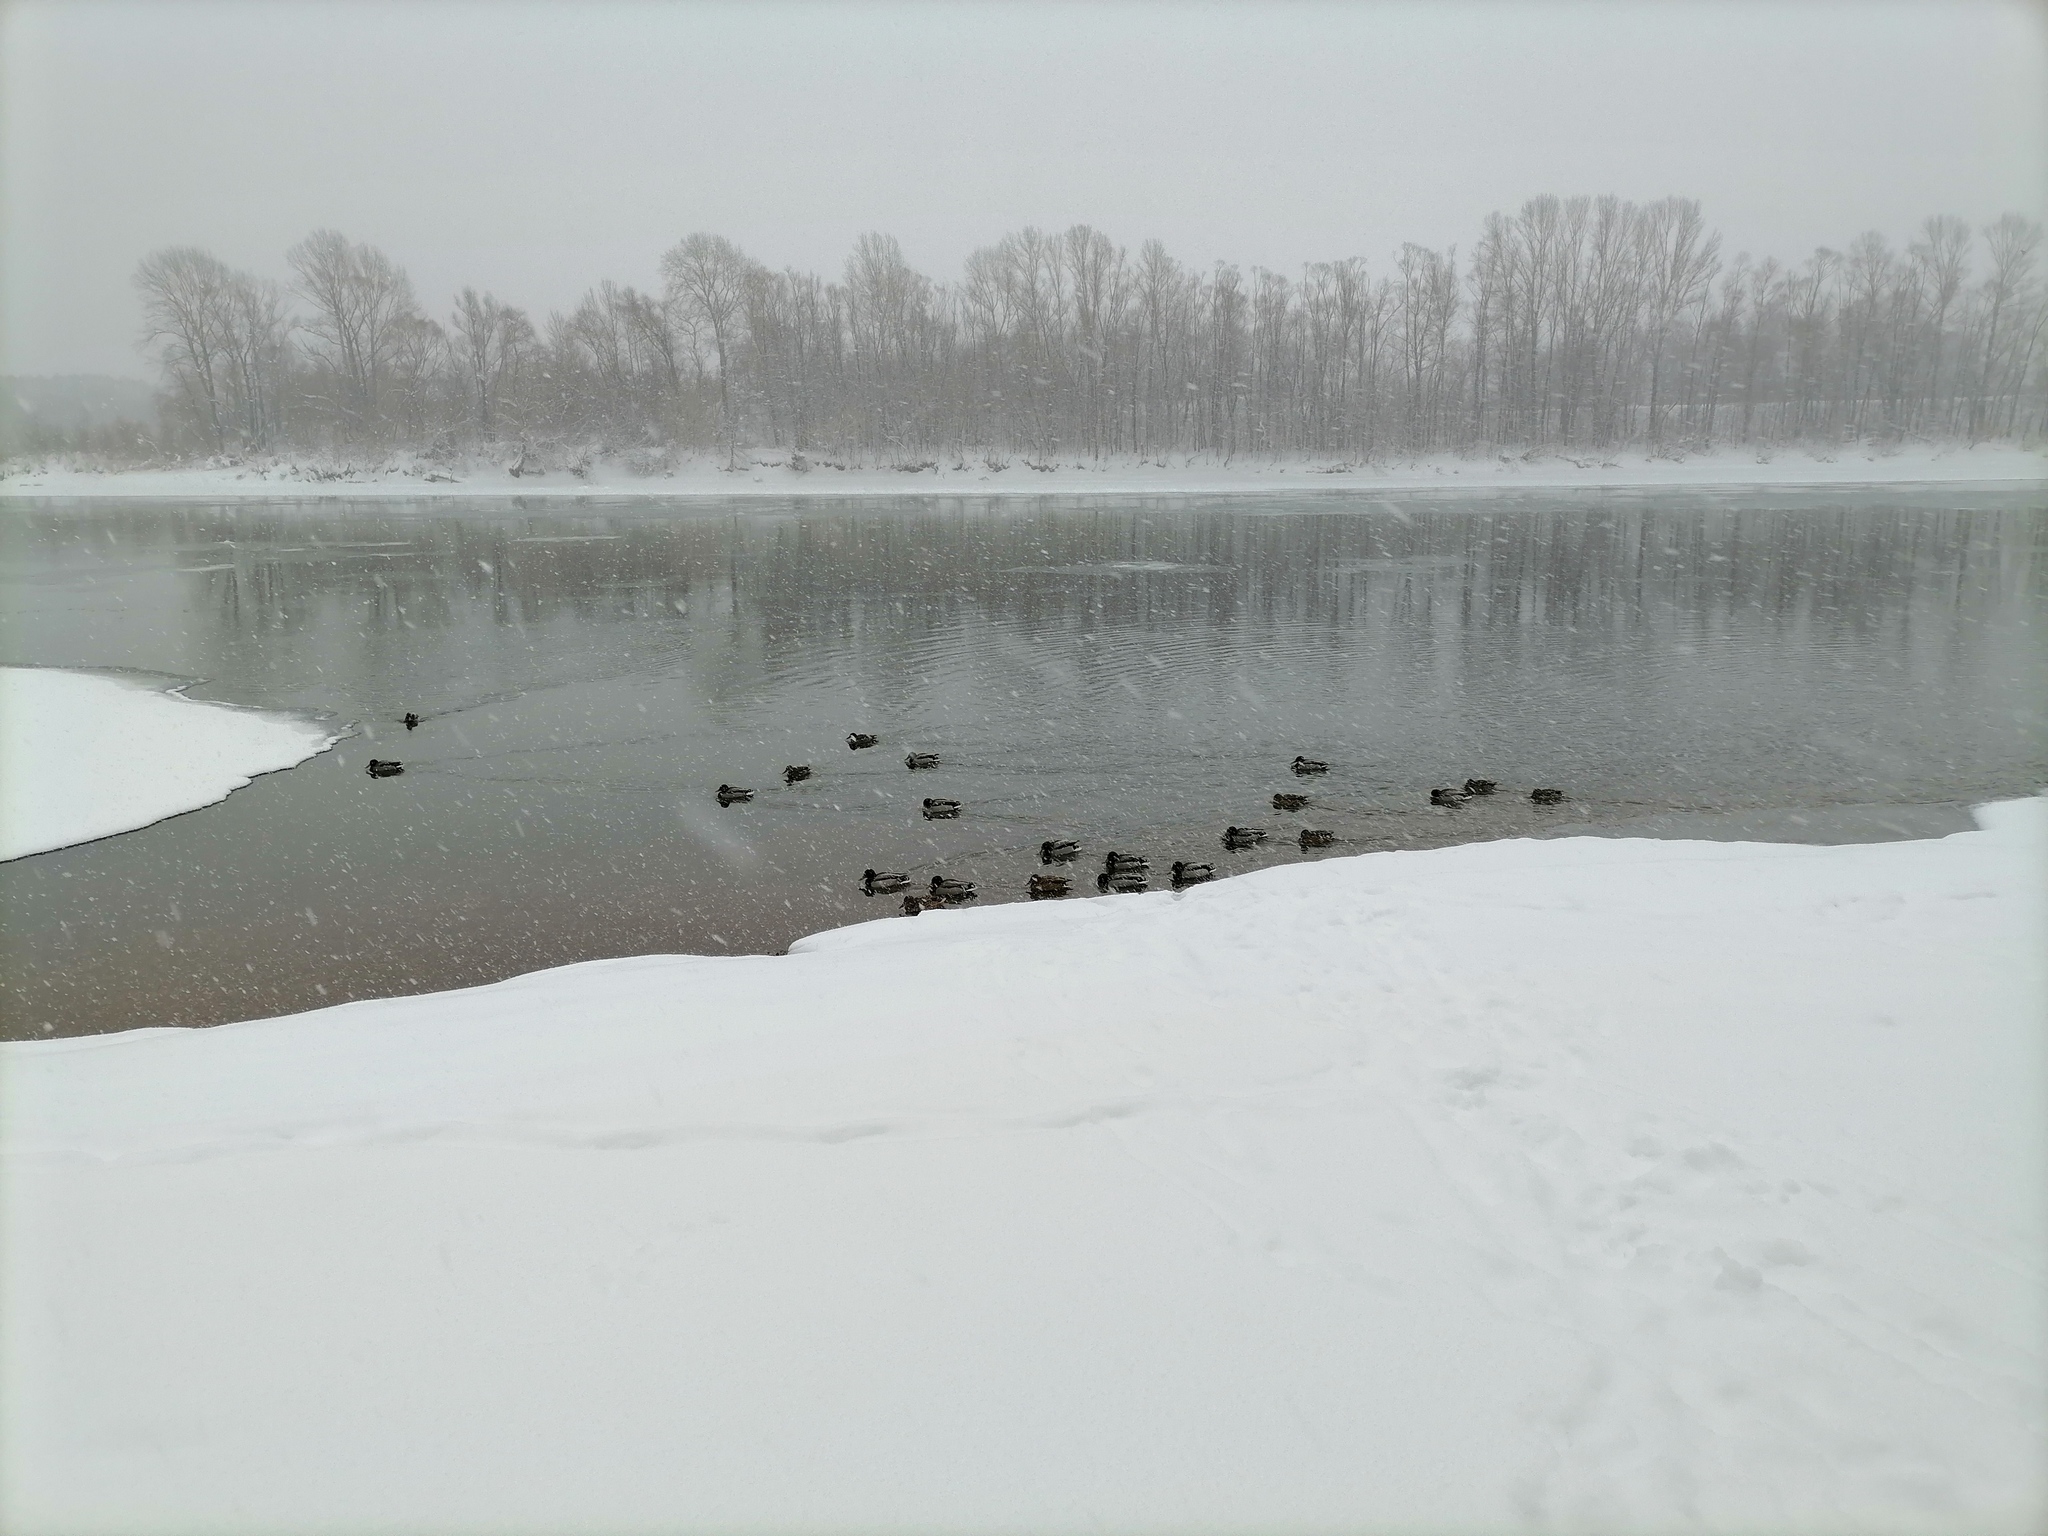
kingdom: Animalia
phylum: Chordata
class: Aves
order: Anseriformes
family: Anatidae
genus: Anas
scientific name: Anas platyrhynchos
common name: Mallard
